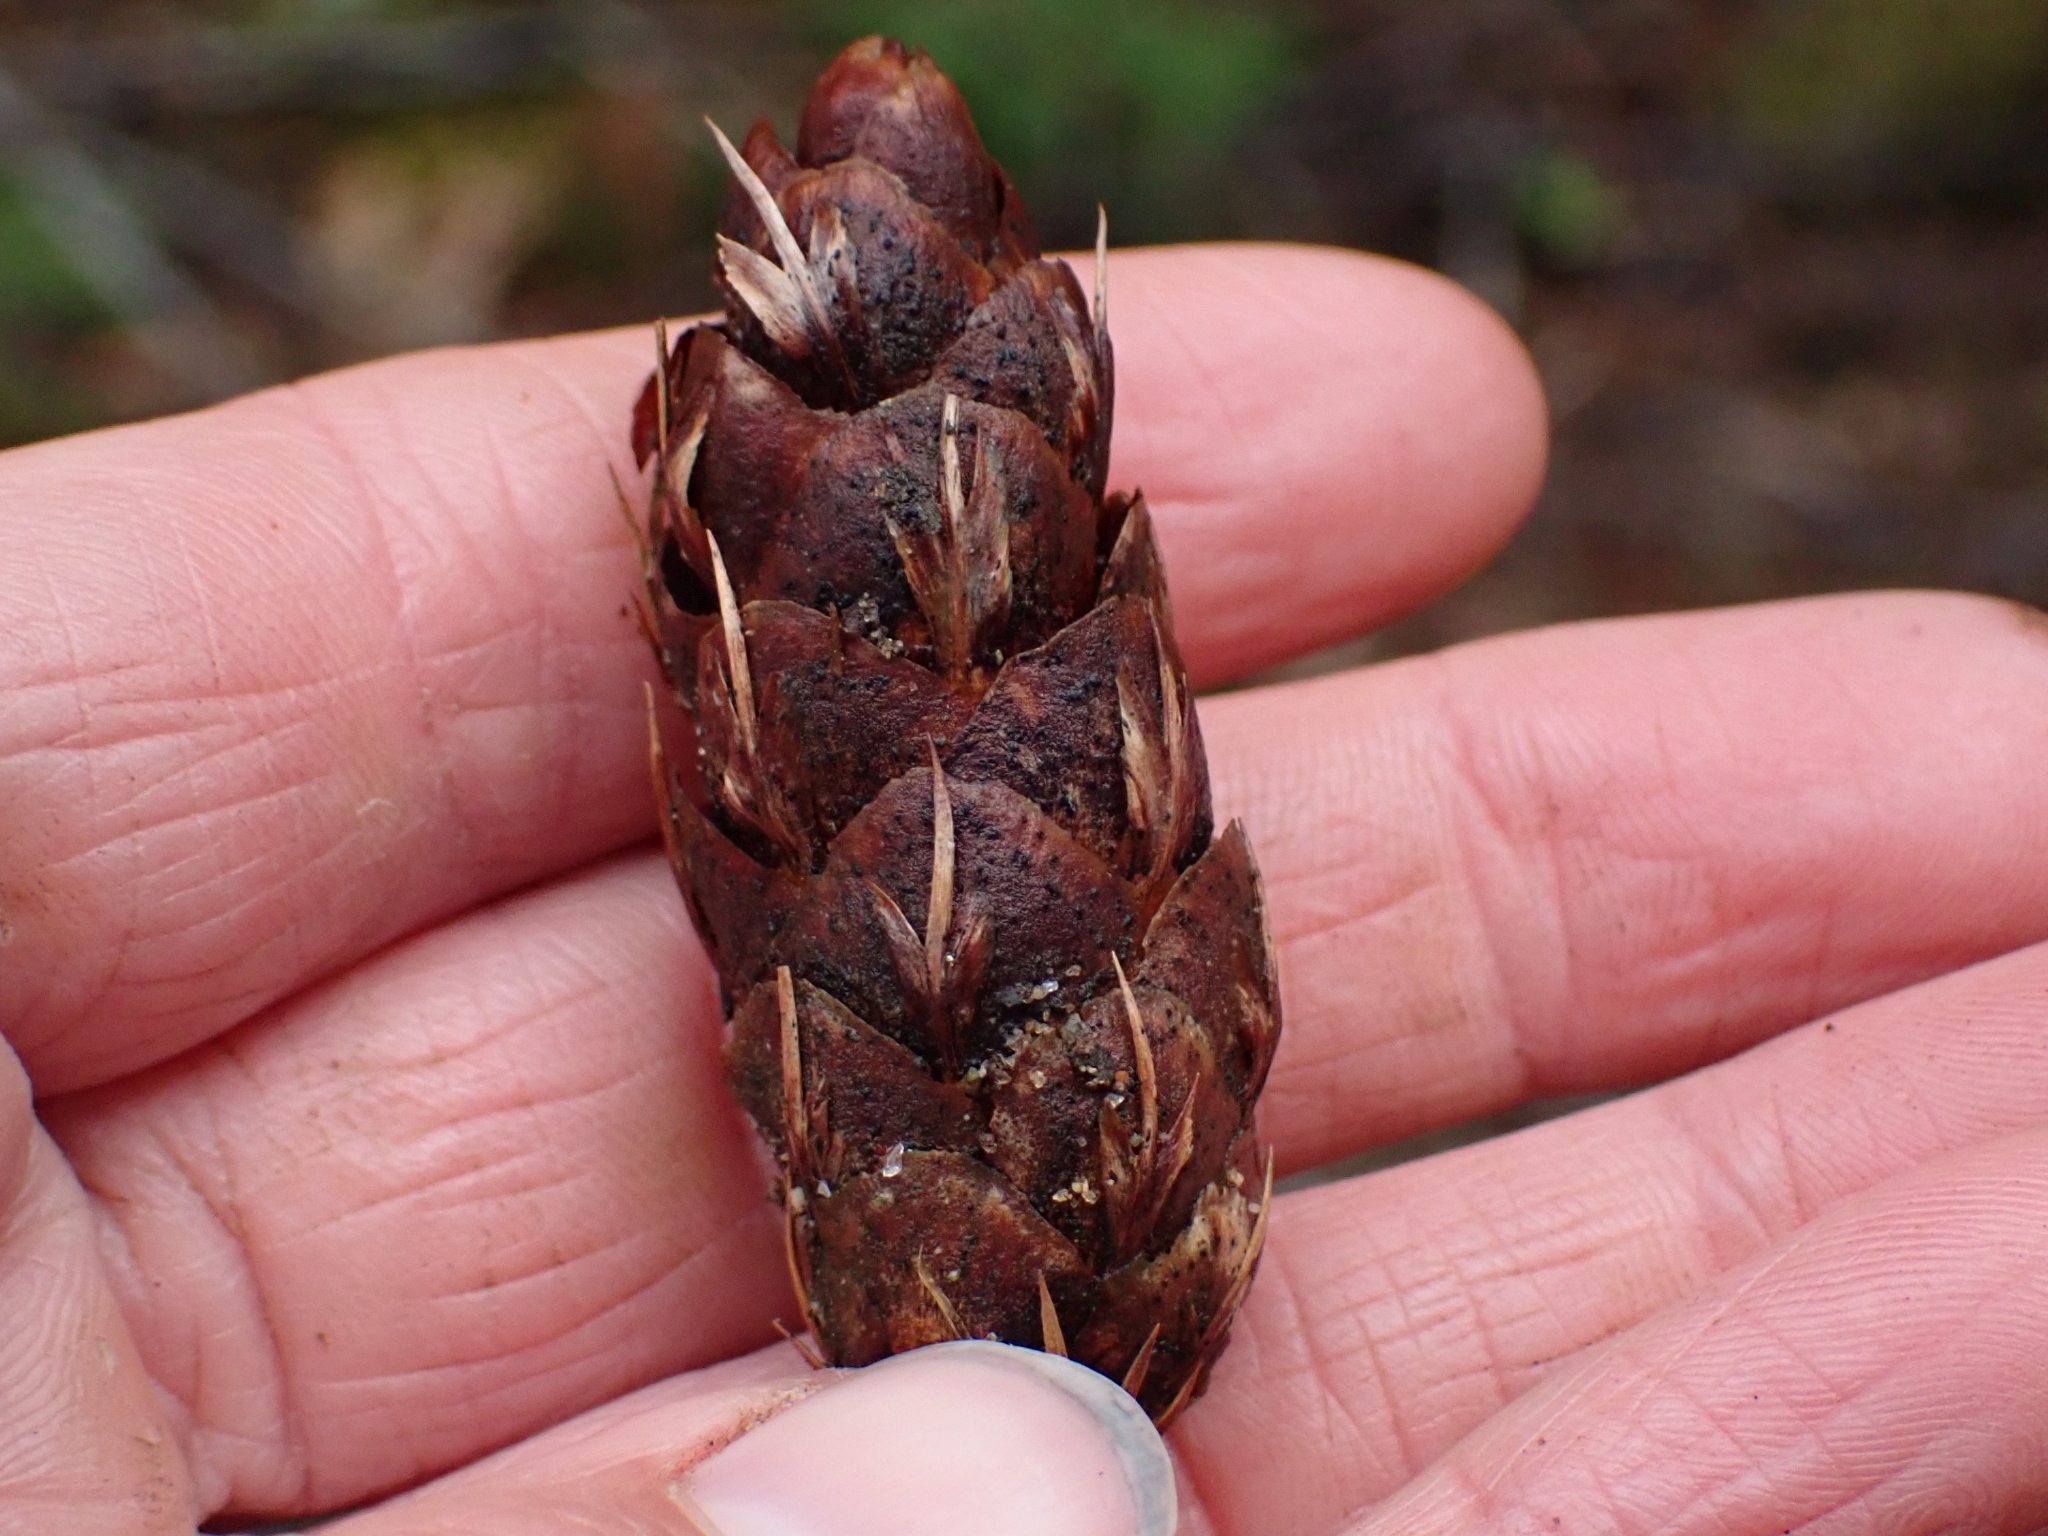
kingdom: Plantae
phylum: Tracheophyta
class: Pinopsida
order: Pinales
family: Pinaceae
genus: Pseudotsuga
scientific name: Pseudotsuga menziesii
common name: Douglas fir
